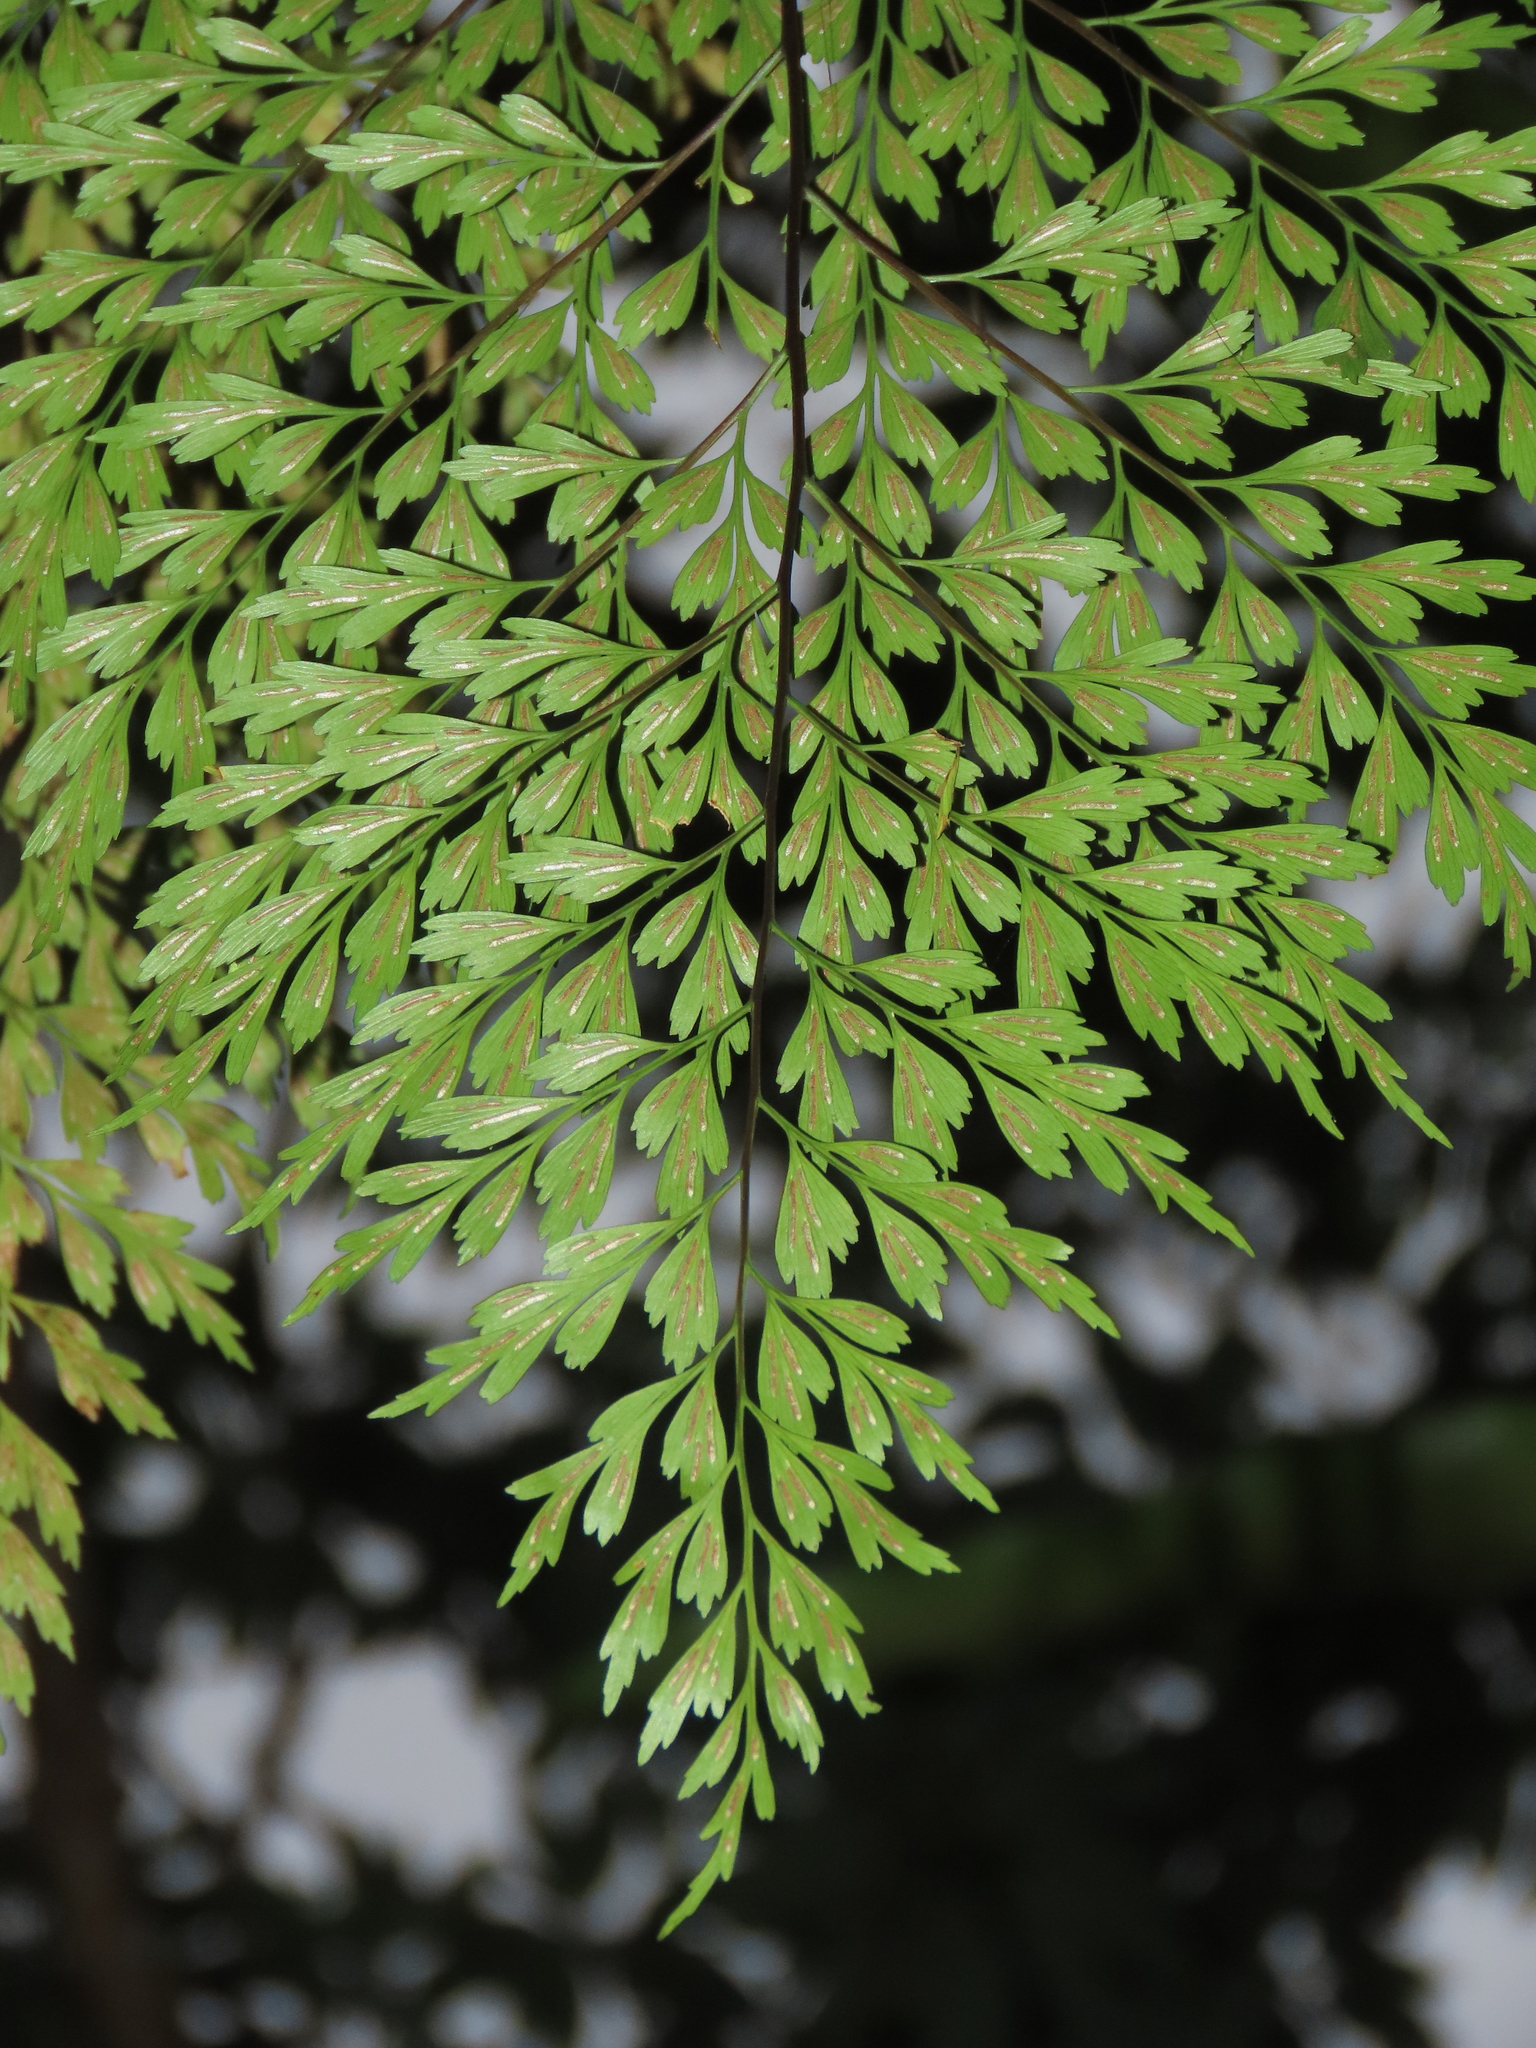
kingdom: Plantae
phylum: Tracheophyta
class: Polypodiopsida
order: Polypodiales
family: Aspleniaceae
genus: Asplenium
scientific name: Asplenium pseudolaserpitiifolium
